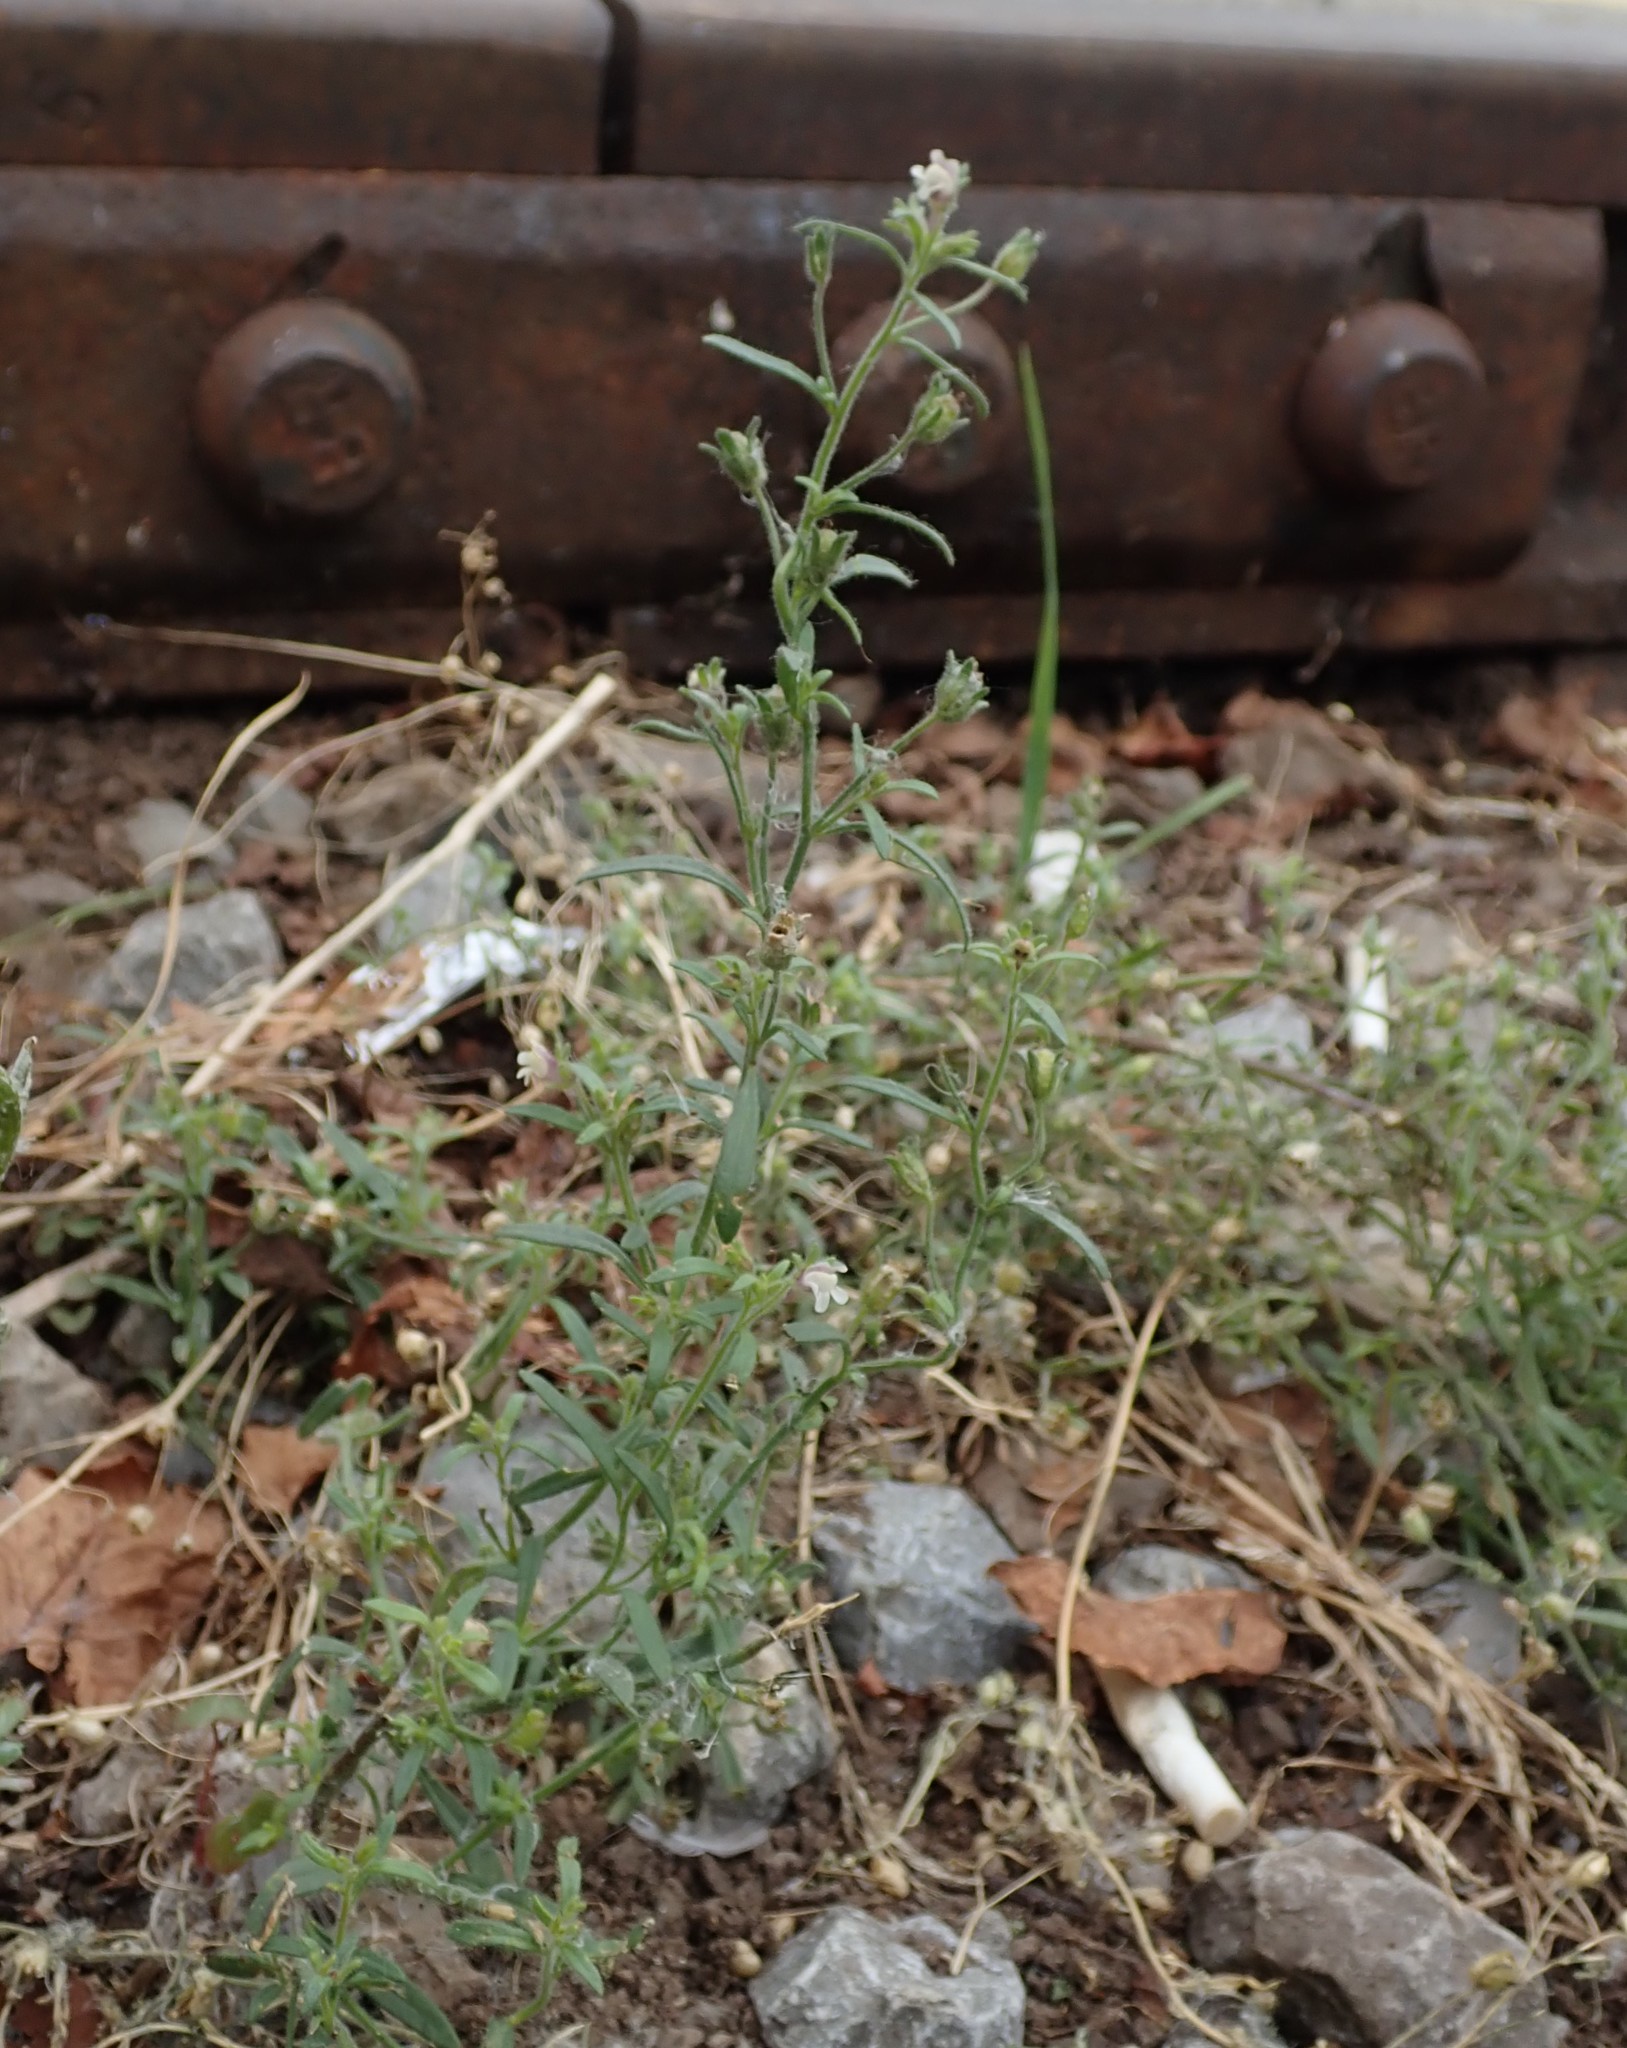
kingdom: Plantae
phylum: Tracheophyta
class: Magnoliopsida
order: Lamiales
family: Plantaginaceae
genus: Chaenorhinum
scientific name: Chaenorhinum minus
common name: Dwarf snapdragon
